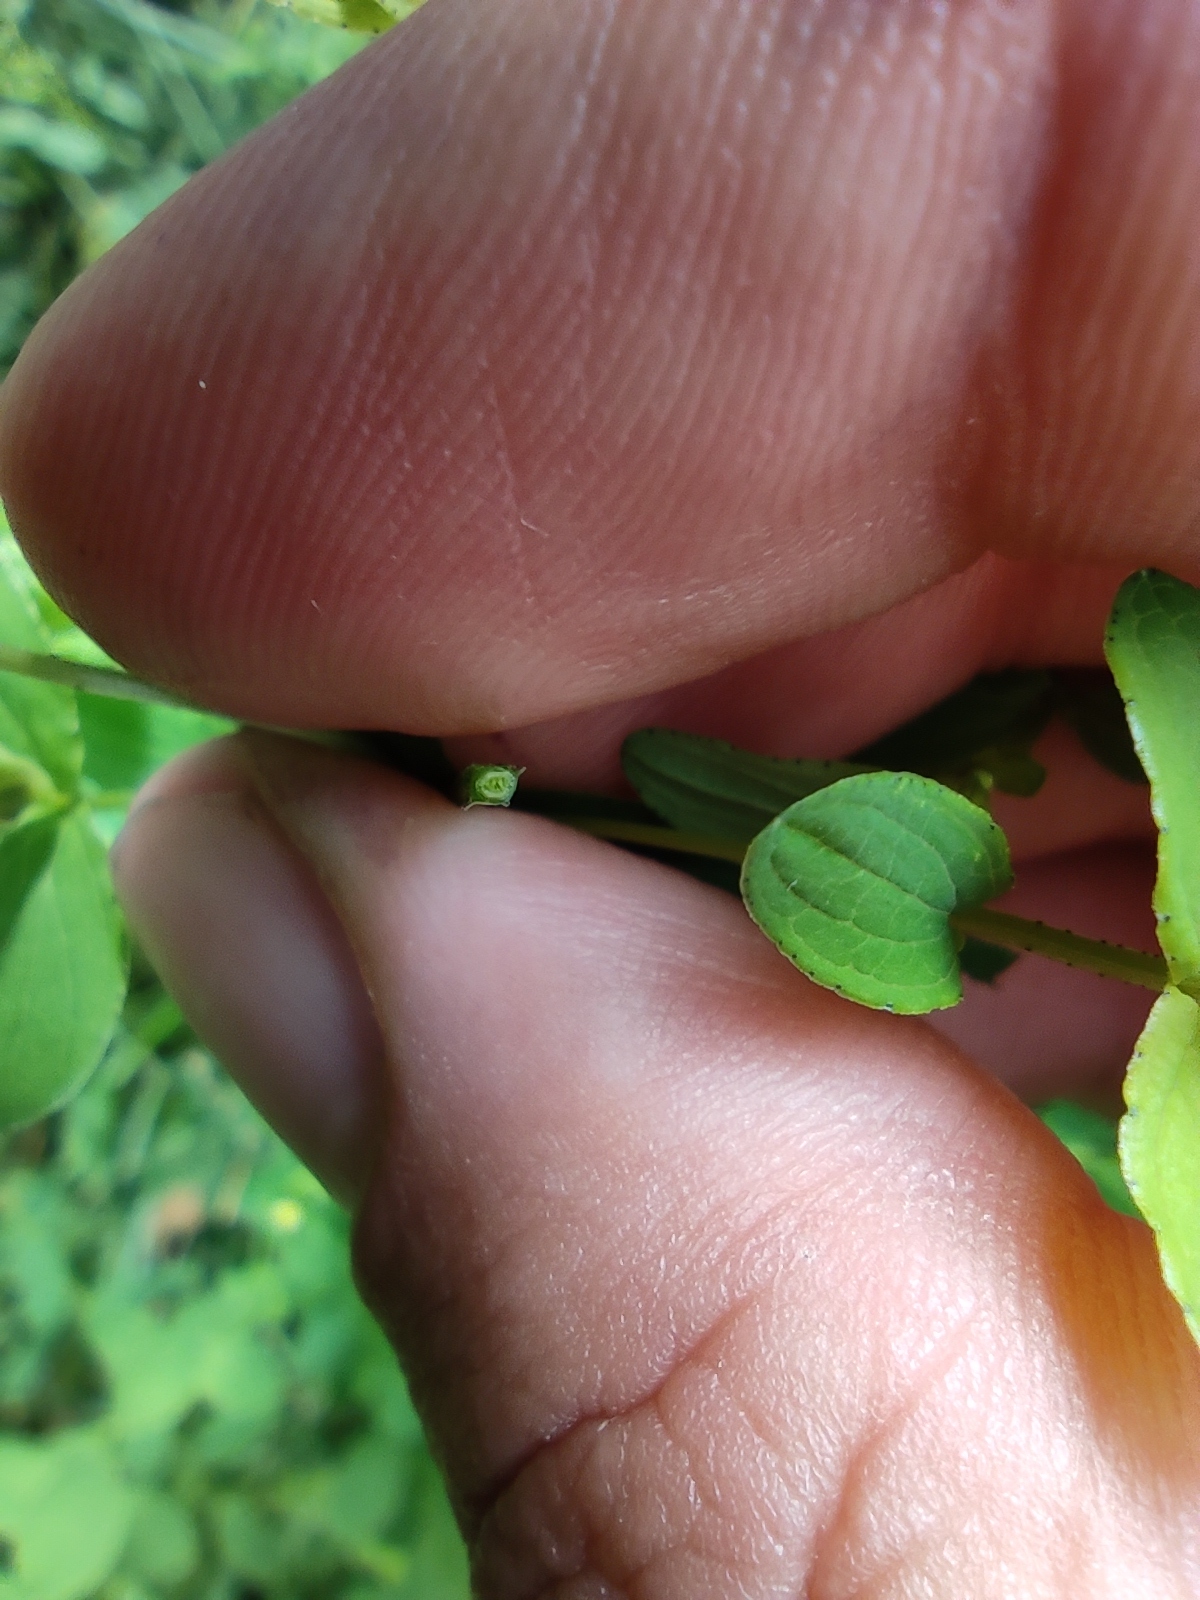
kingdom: Plantae
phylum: Tracheophyta
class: Magnoliopsida
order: Malpighiales
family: Hypericaceae
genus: Hypericum
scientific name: Hypericum maculatum
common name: Imperforate st. john's-wort
